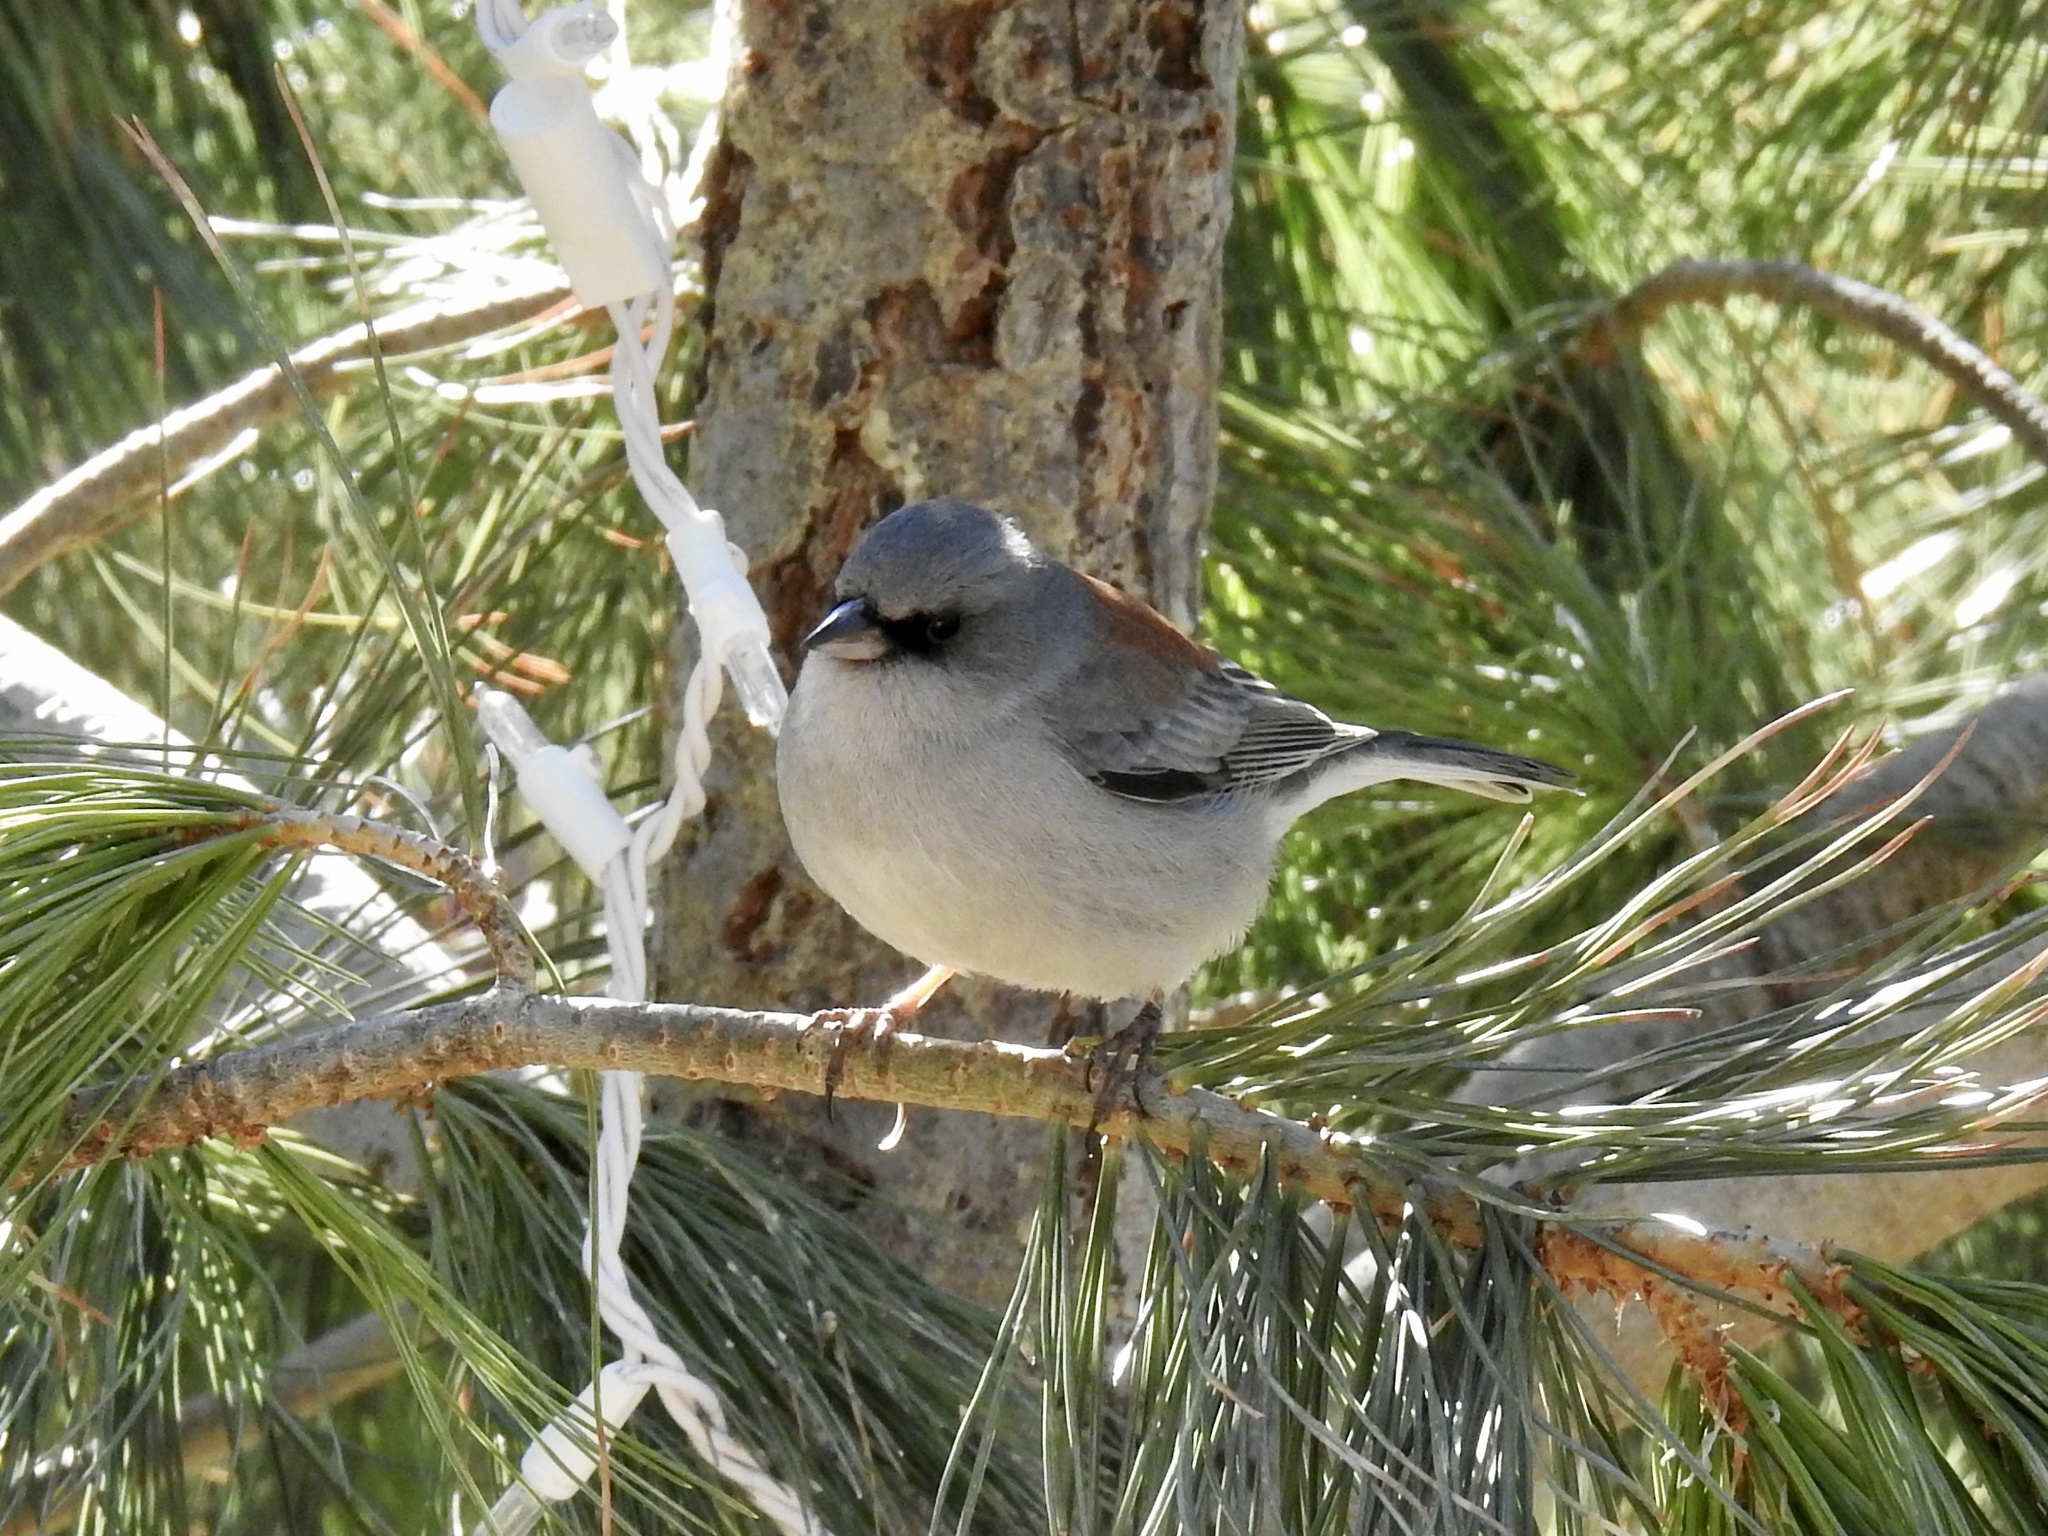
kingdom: Animalia
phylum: Chordata
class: Aves
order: Passeriformes
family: Passerellidae
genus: Junco
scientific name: Junco hyemalis
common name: Dark-eyed junco
